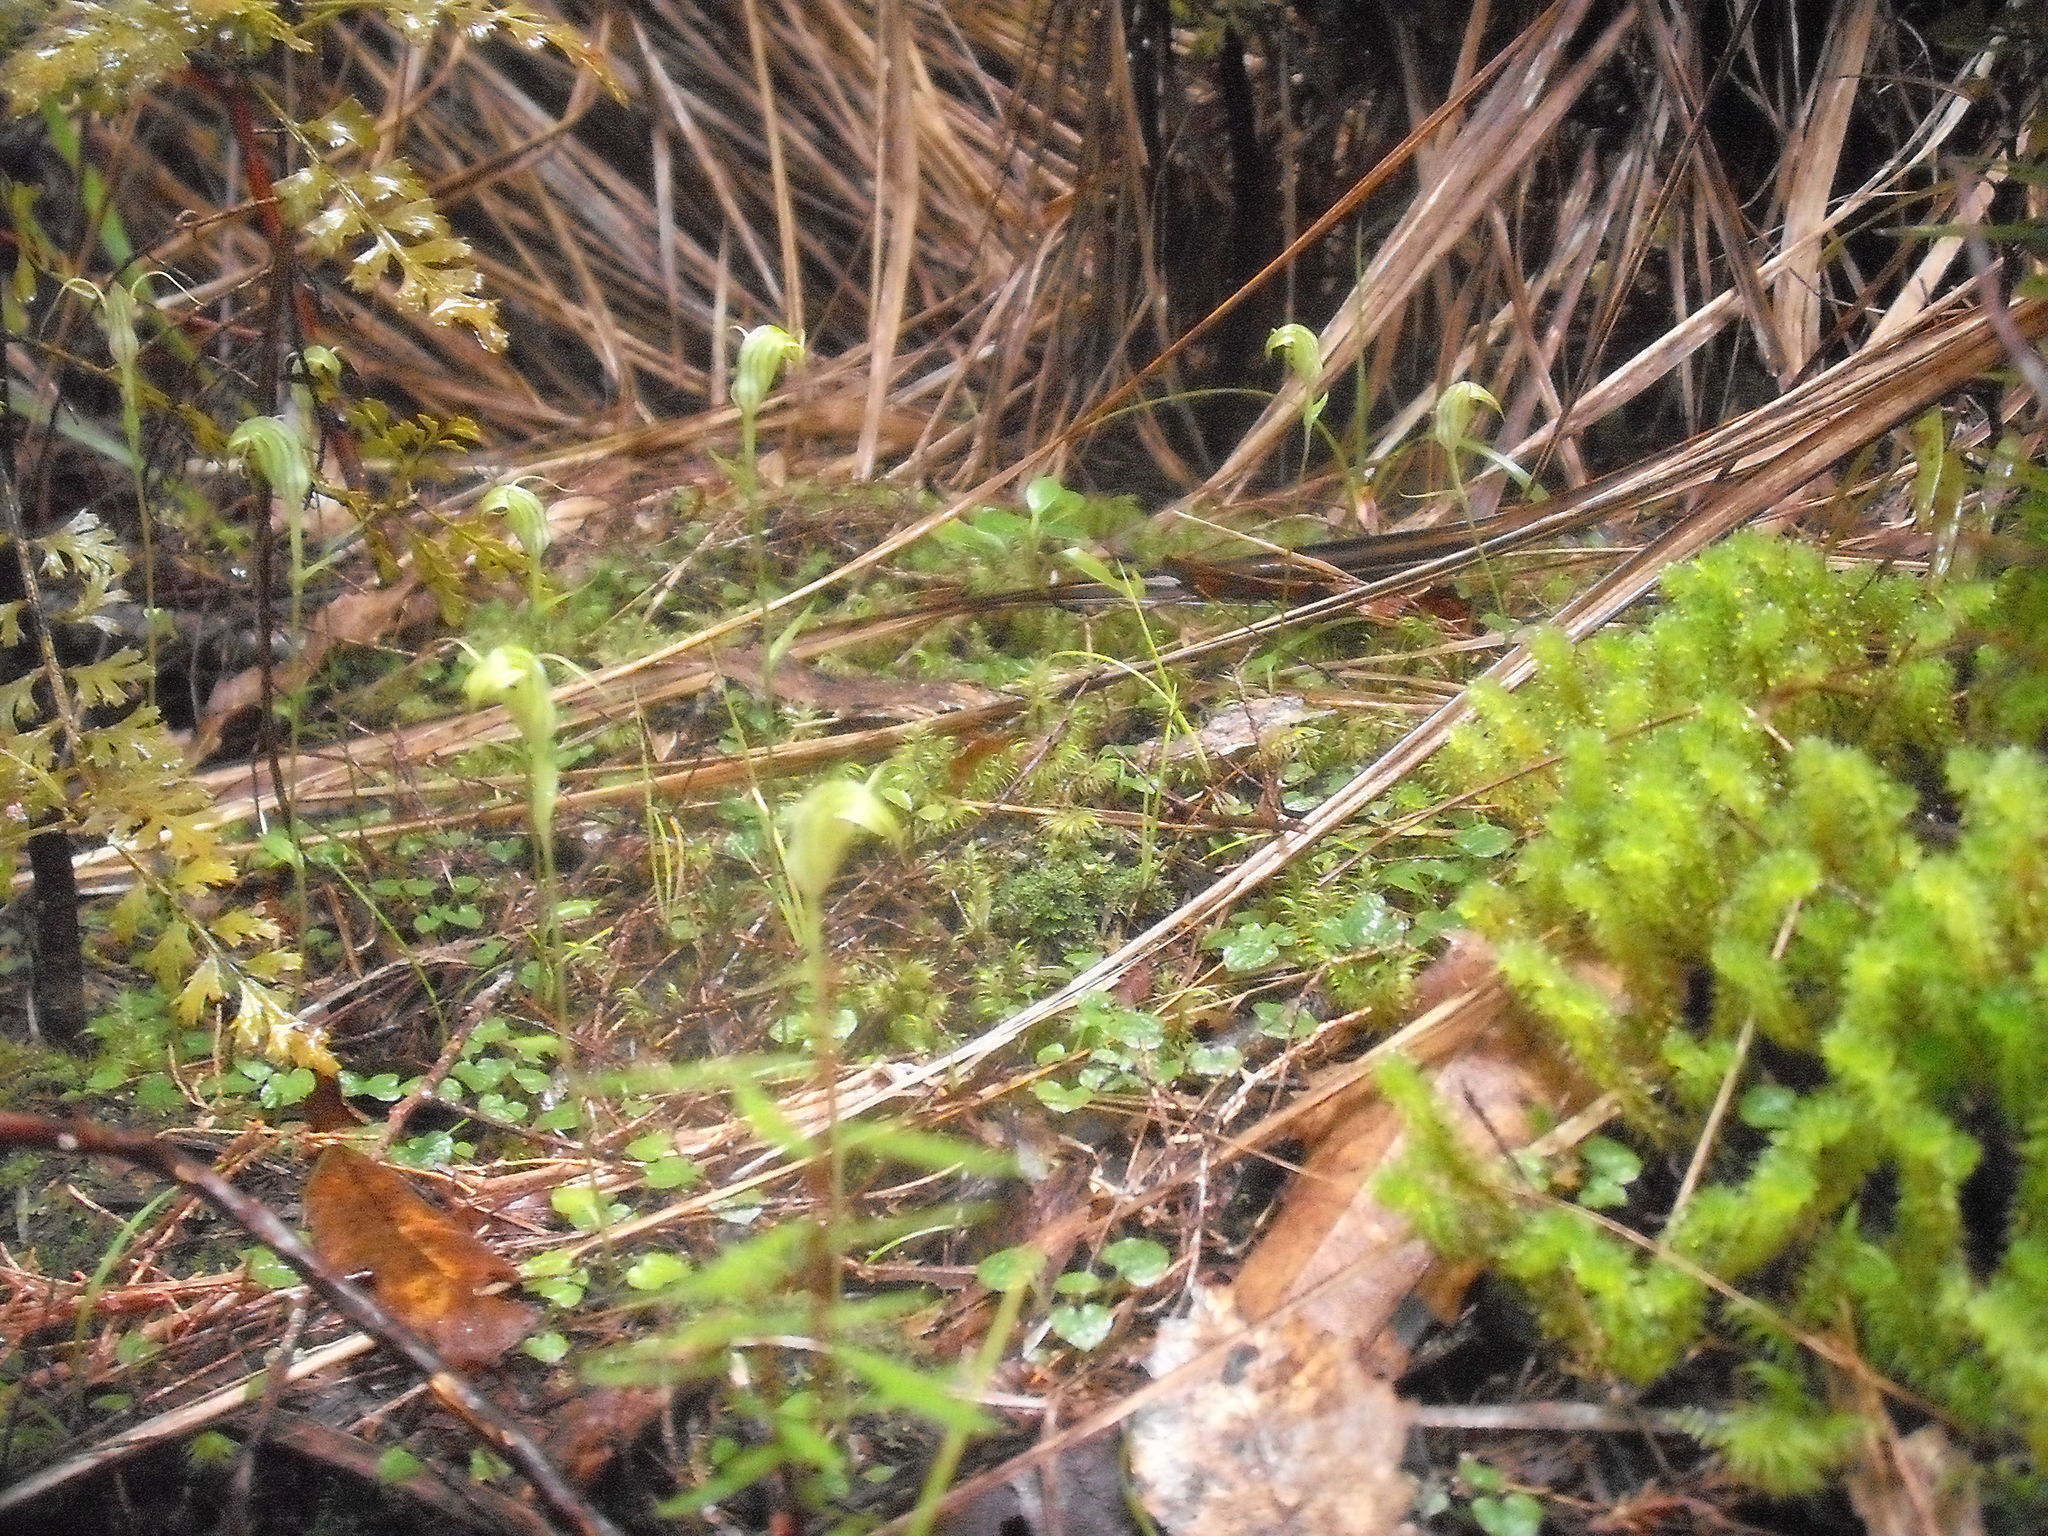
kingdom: Plantae
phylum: Tracheophyta
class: Liliopsida
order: Asparagales
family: Orchidaceae
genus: Pterostylis
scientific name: Pterostylis trullifolia
